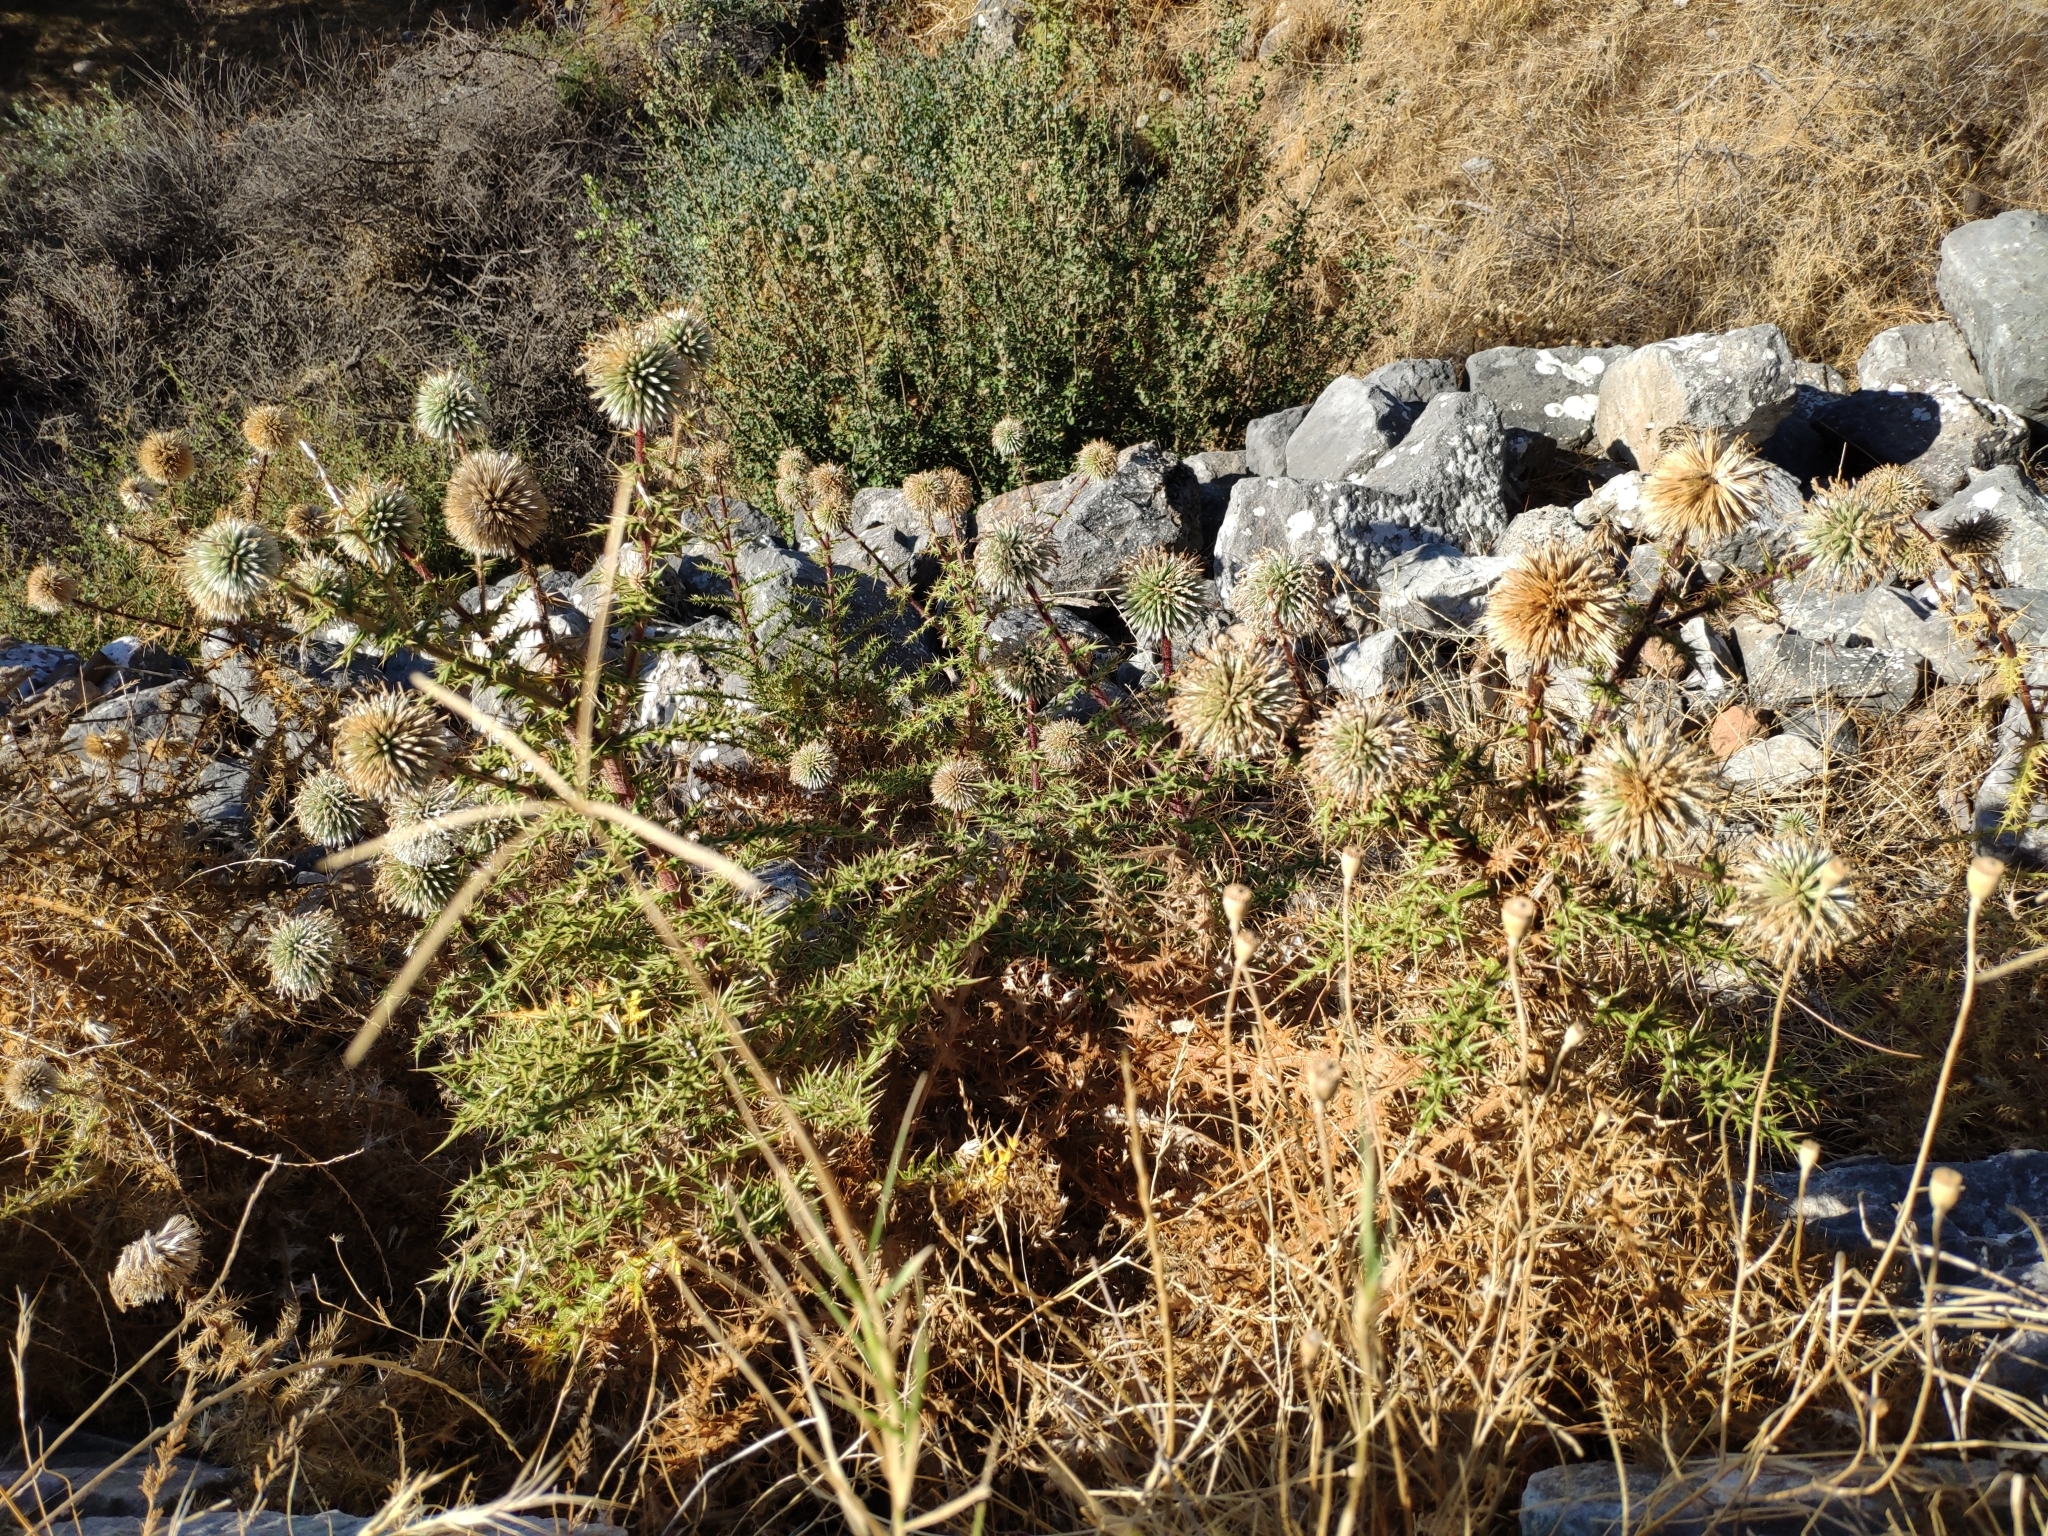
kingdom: Plantae
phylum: Tracheophyta
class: Magnoliopsida
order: Asterales
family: Asteraceae
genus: Echinops
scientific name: Echinops spinosissimus
